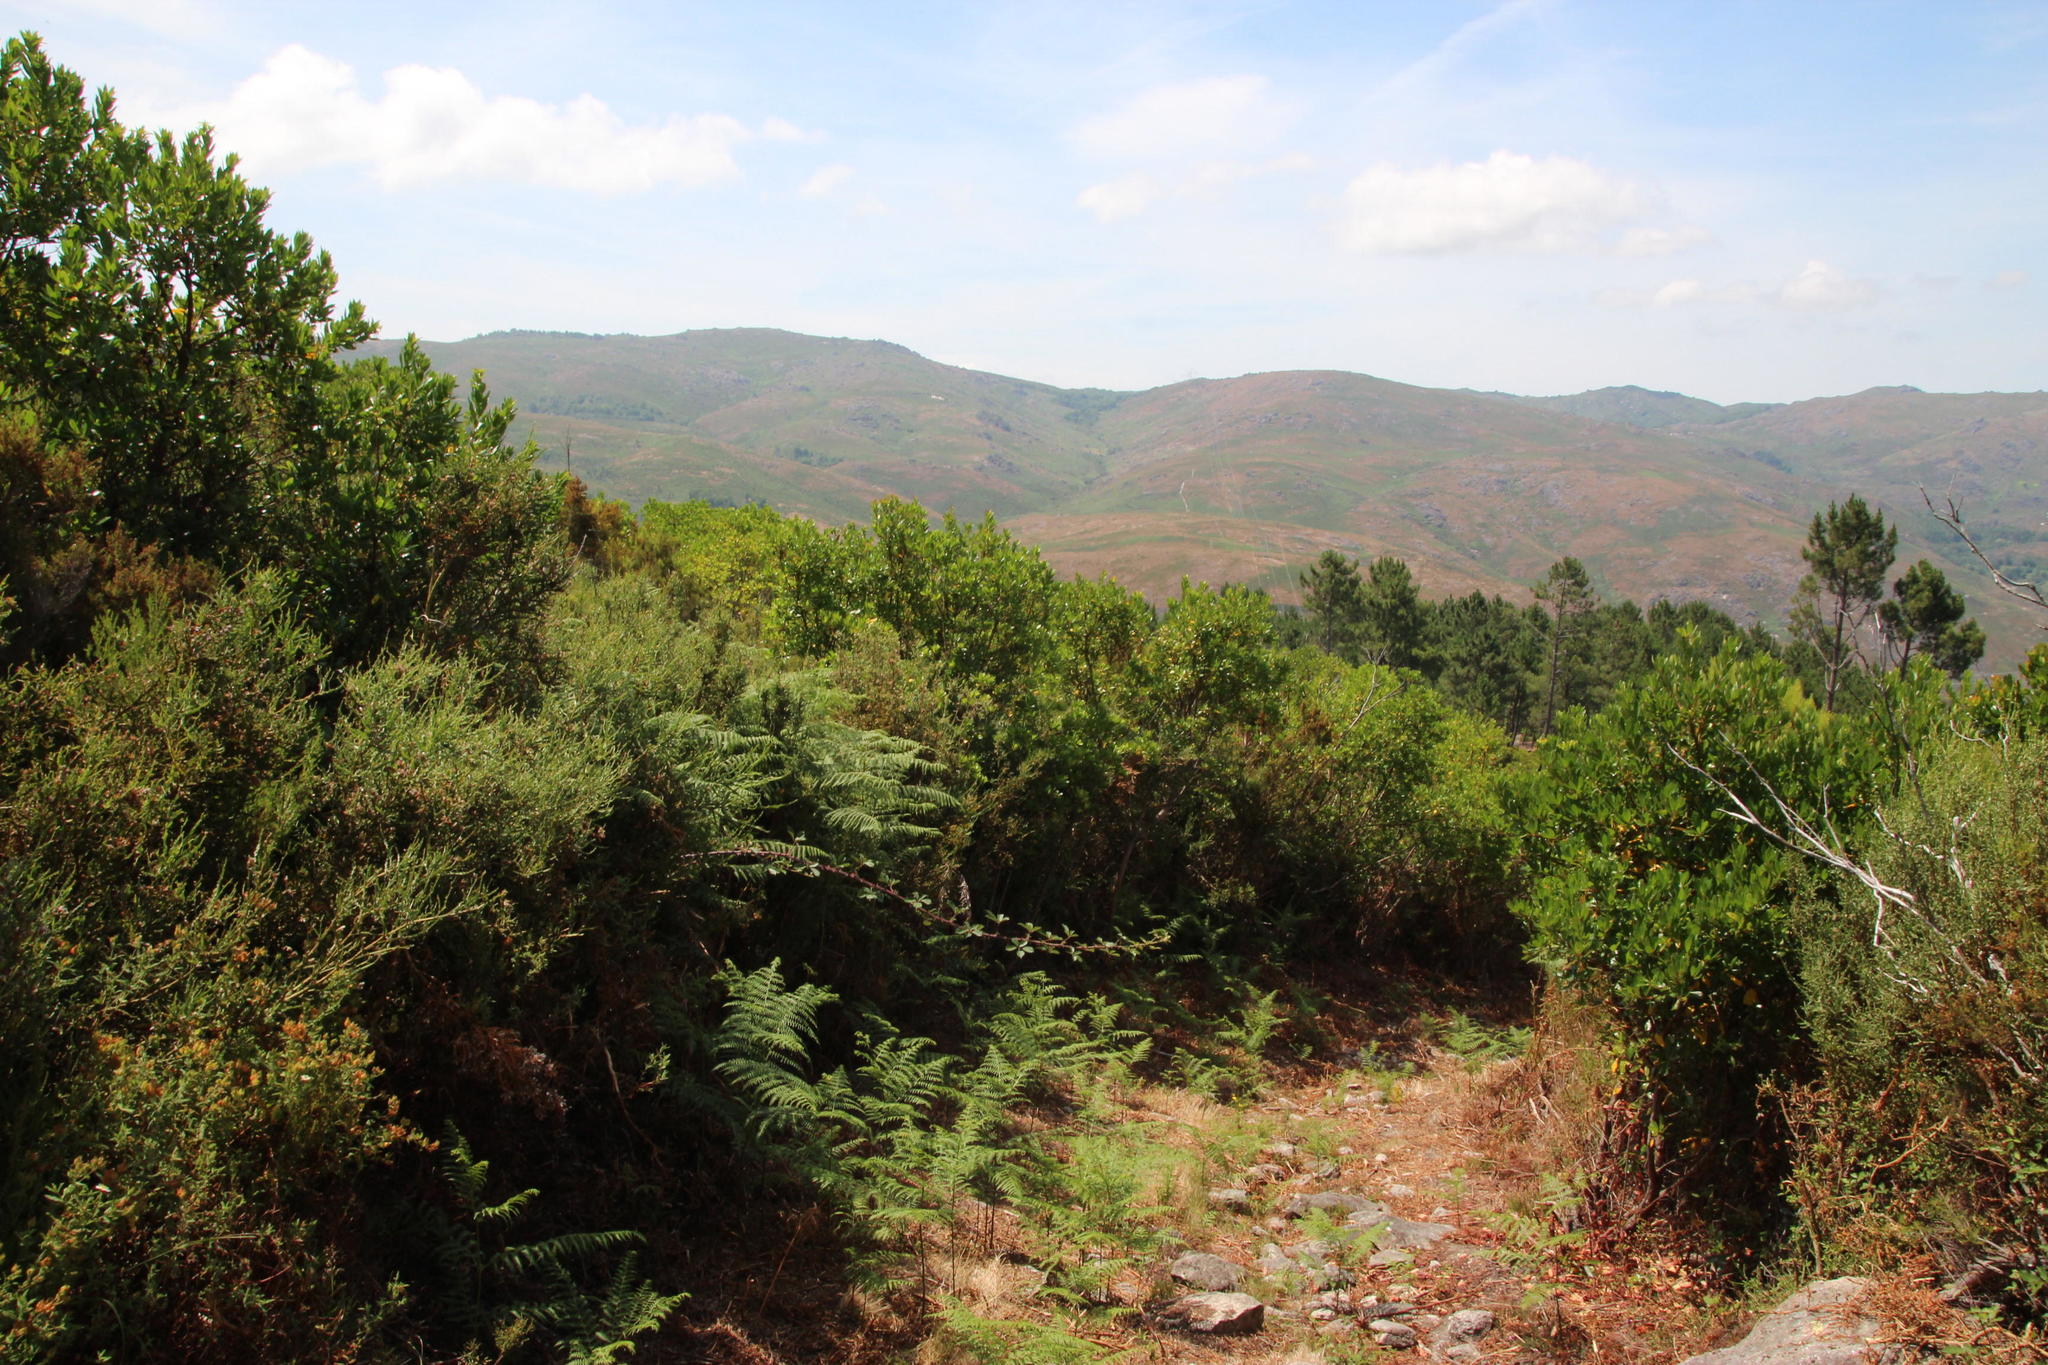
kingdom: Plantae
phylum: Tracheophyta
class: Magnoliopsida
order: Ericales
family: Ericaceae
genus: Arbutus
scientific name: Arbutus unedo
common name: Strawberry-tree
